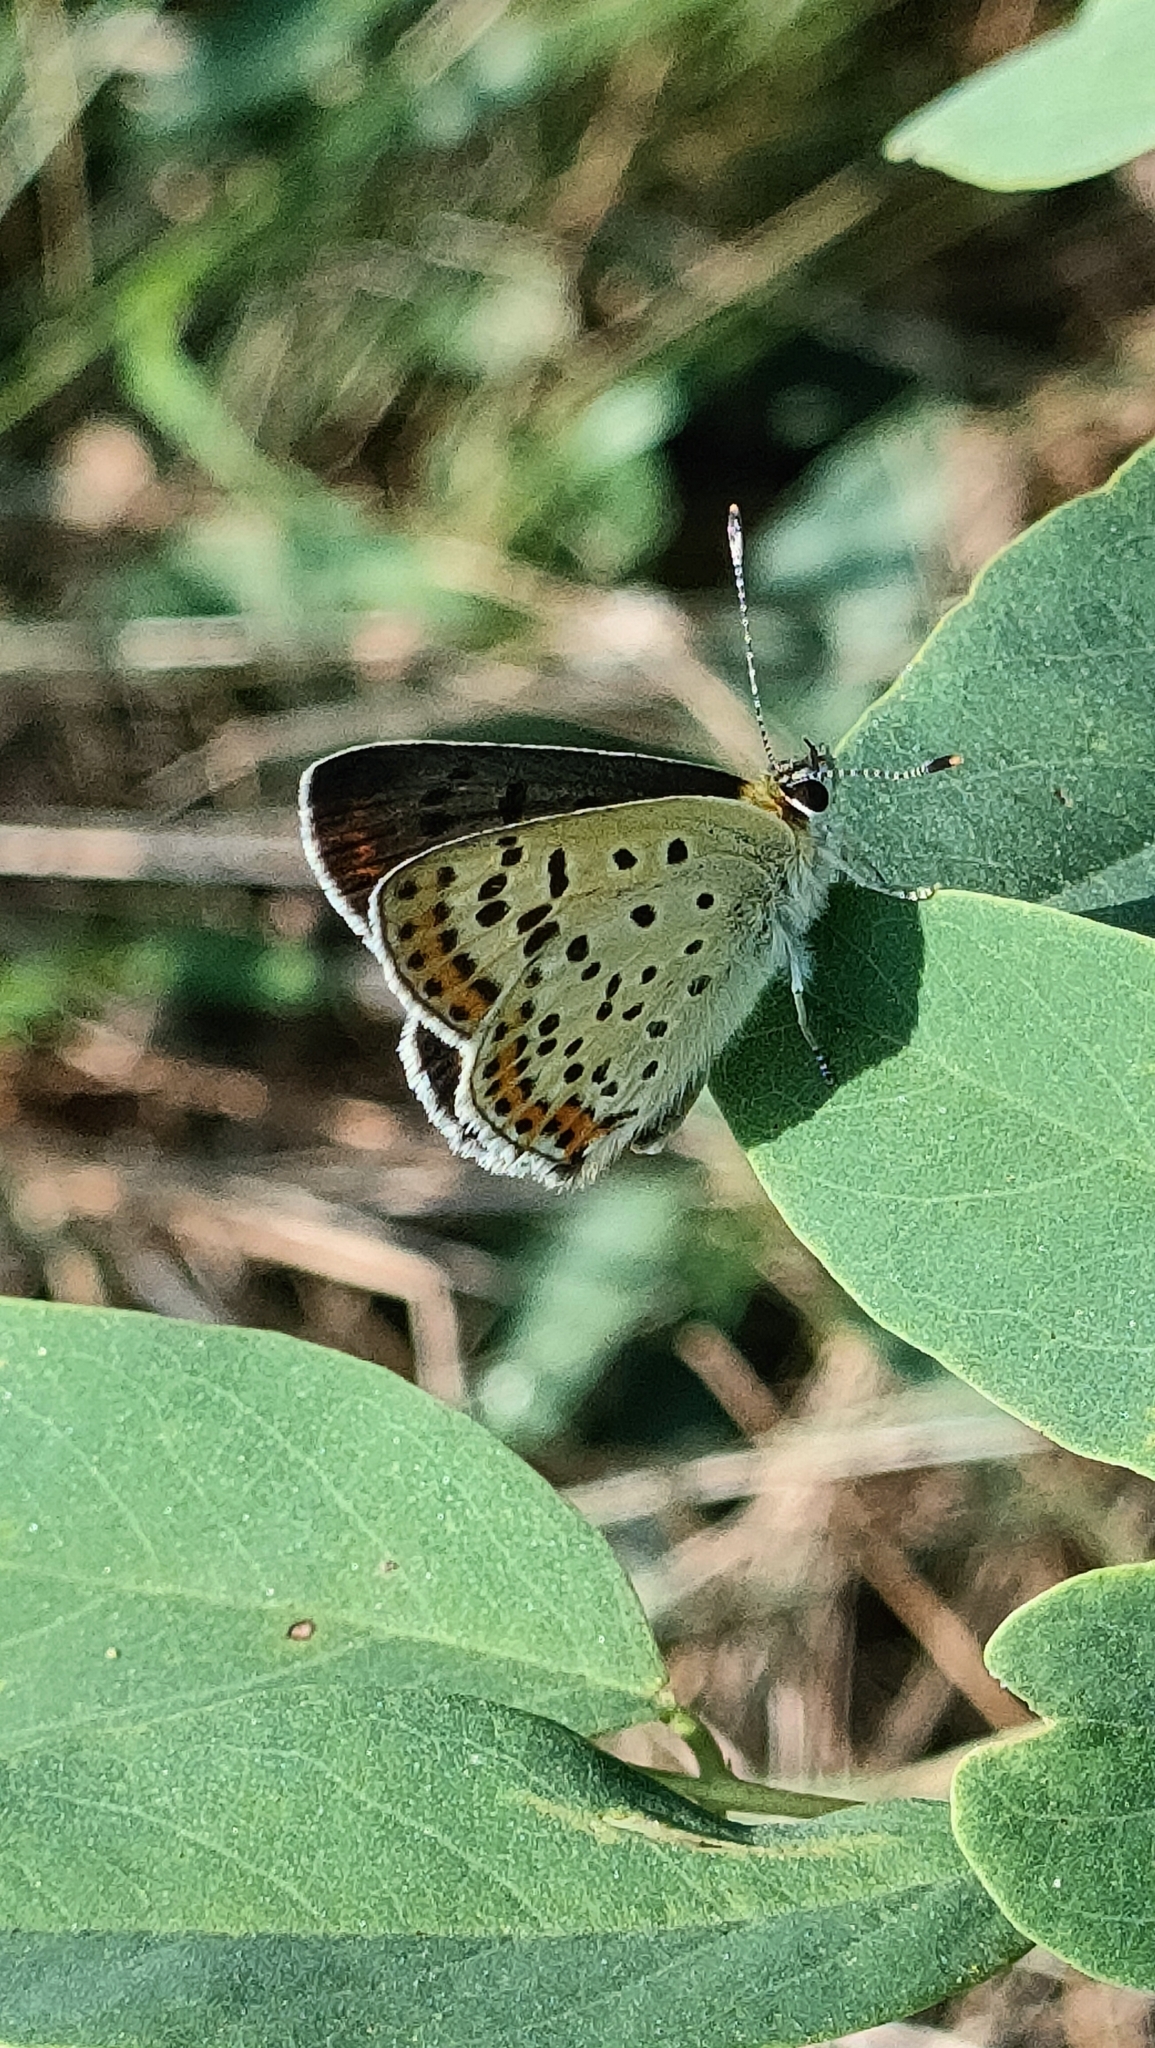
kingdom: Animalia
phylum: Arthropoda
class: Insecta
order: Lepidoptera
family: Lycaenidae
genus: Loweia
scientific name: Loweia tityrus
